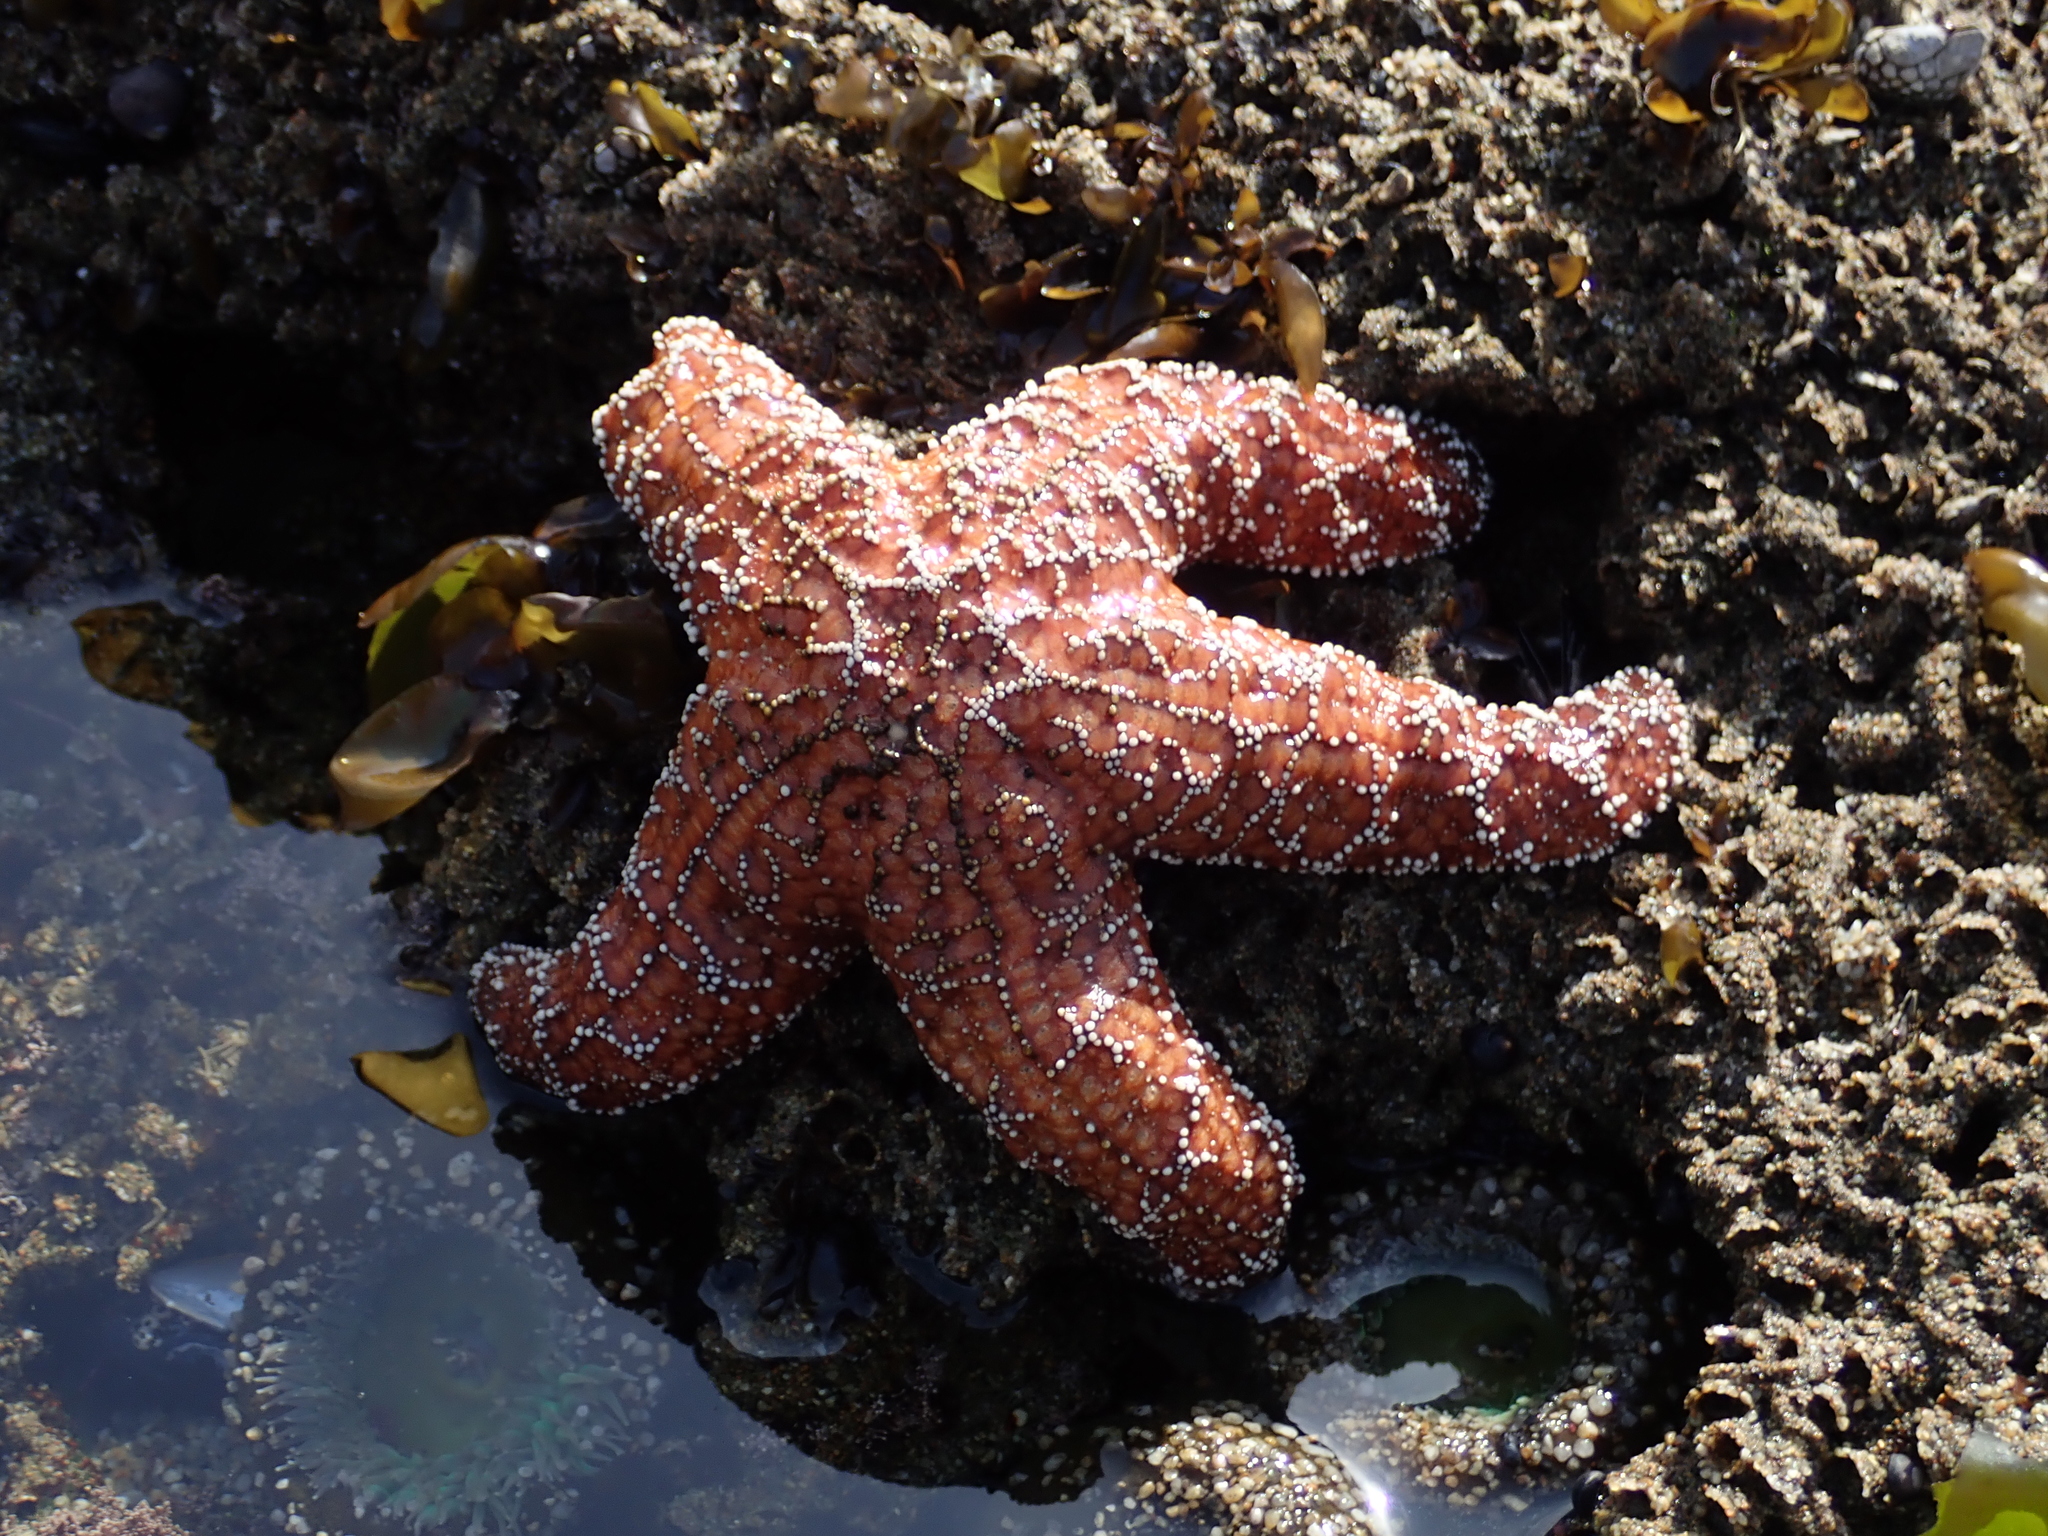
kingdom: Animalia
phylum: Echinodermata
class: Asteroidea
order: Forcipulatida
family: Asteriidae
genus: Pisaster
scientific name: Pisaster ochraceus
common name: Ochre stars
